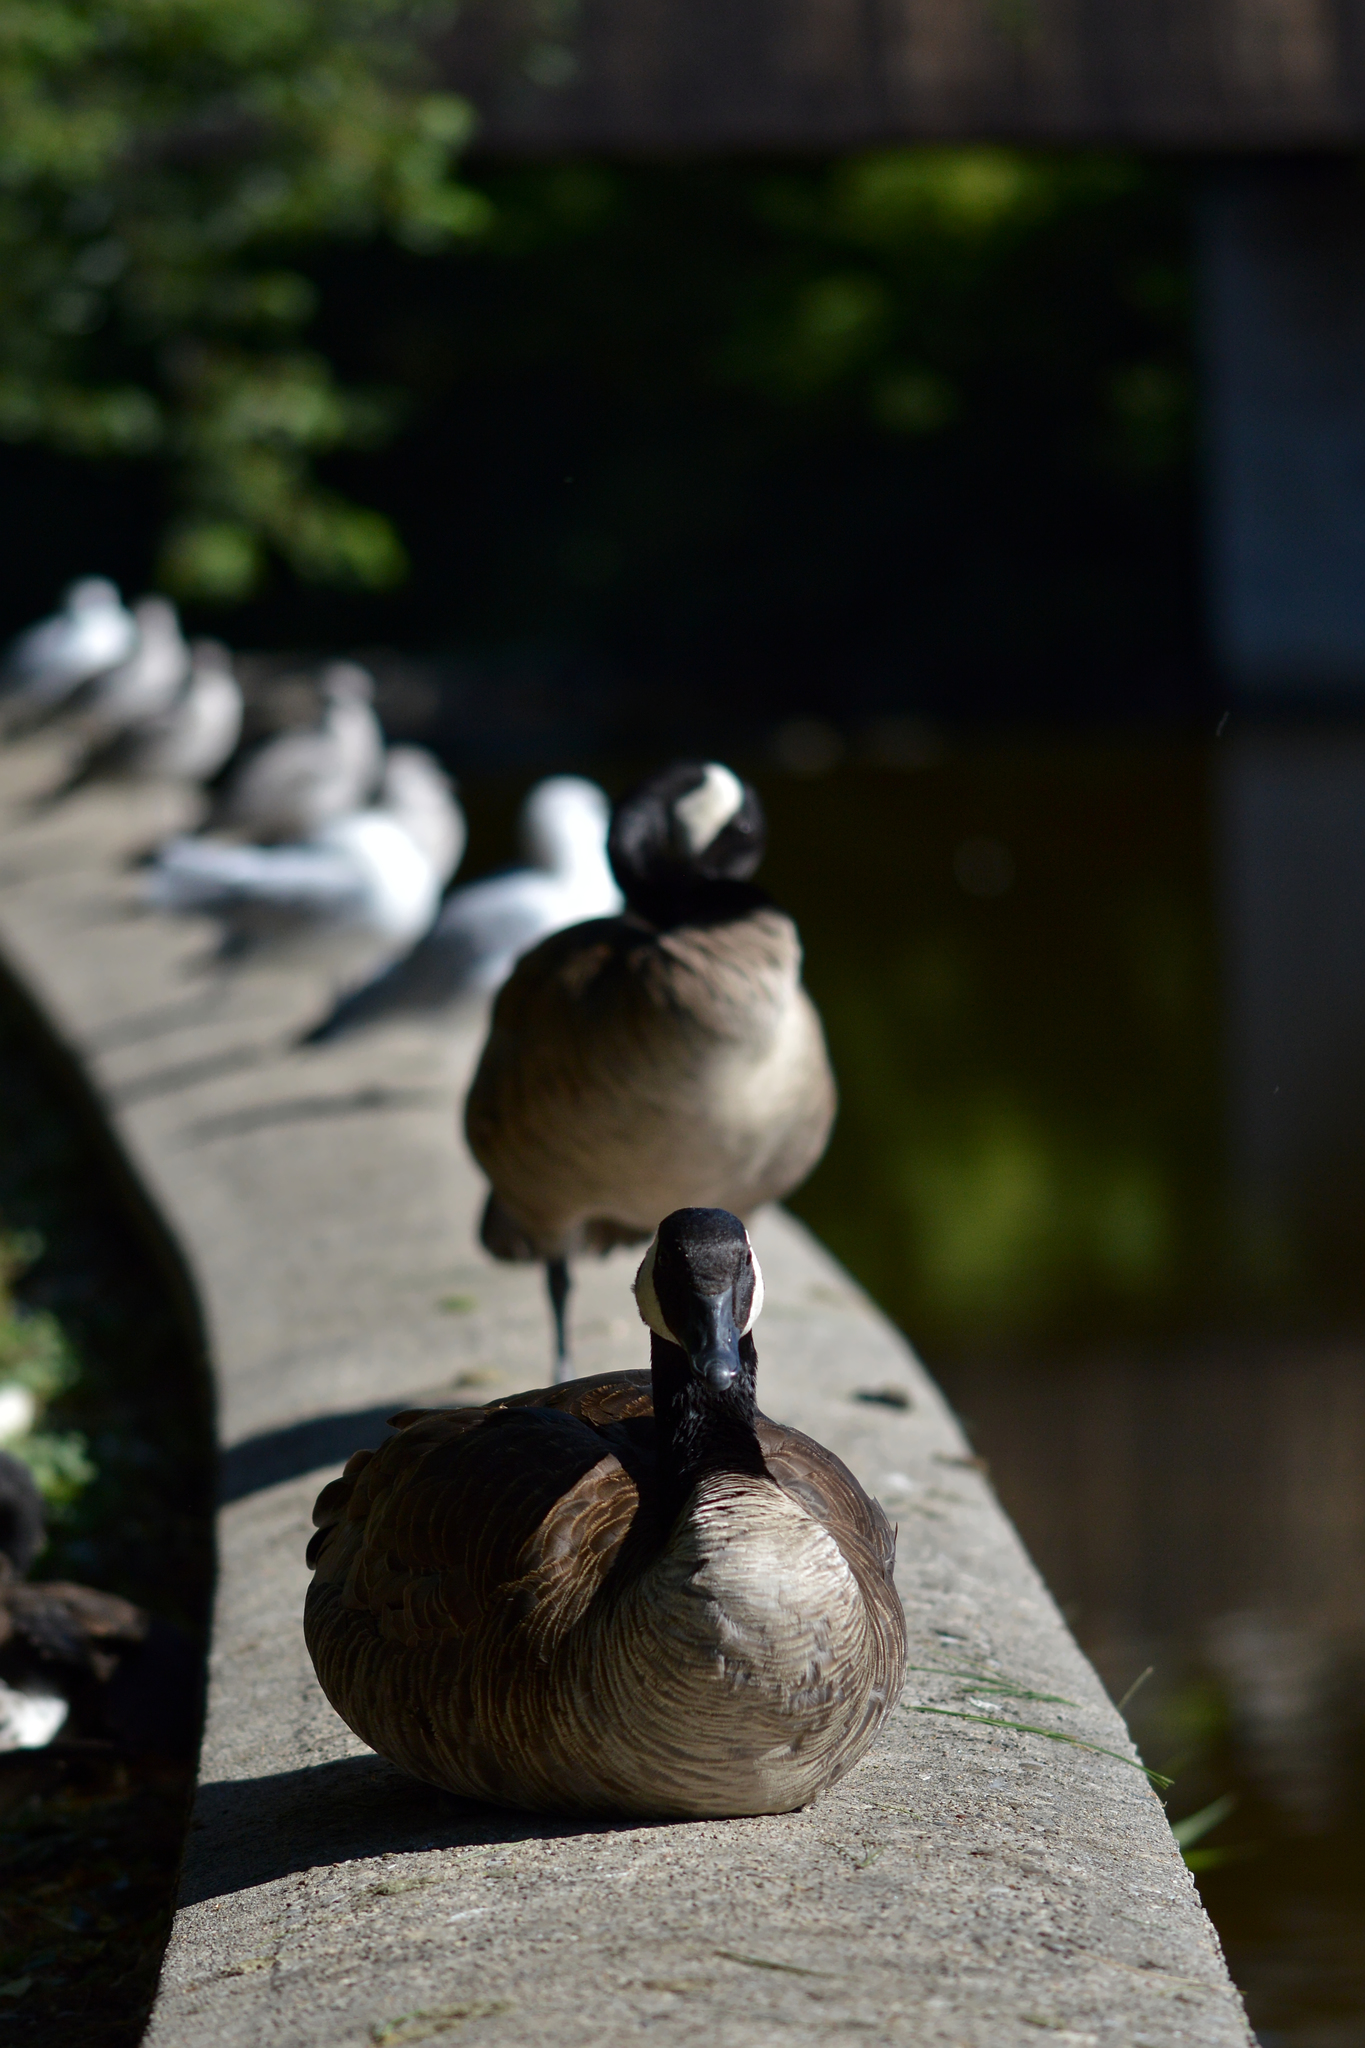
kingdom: Animalia
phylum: Chordata
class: Aves
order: Anseriformes
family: Anatidae
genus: Branta
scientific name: Branta canadensis
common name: Canada goose
